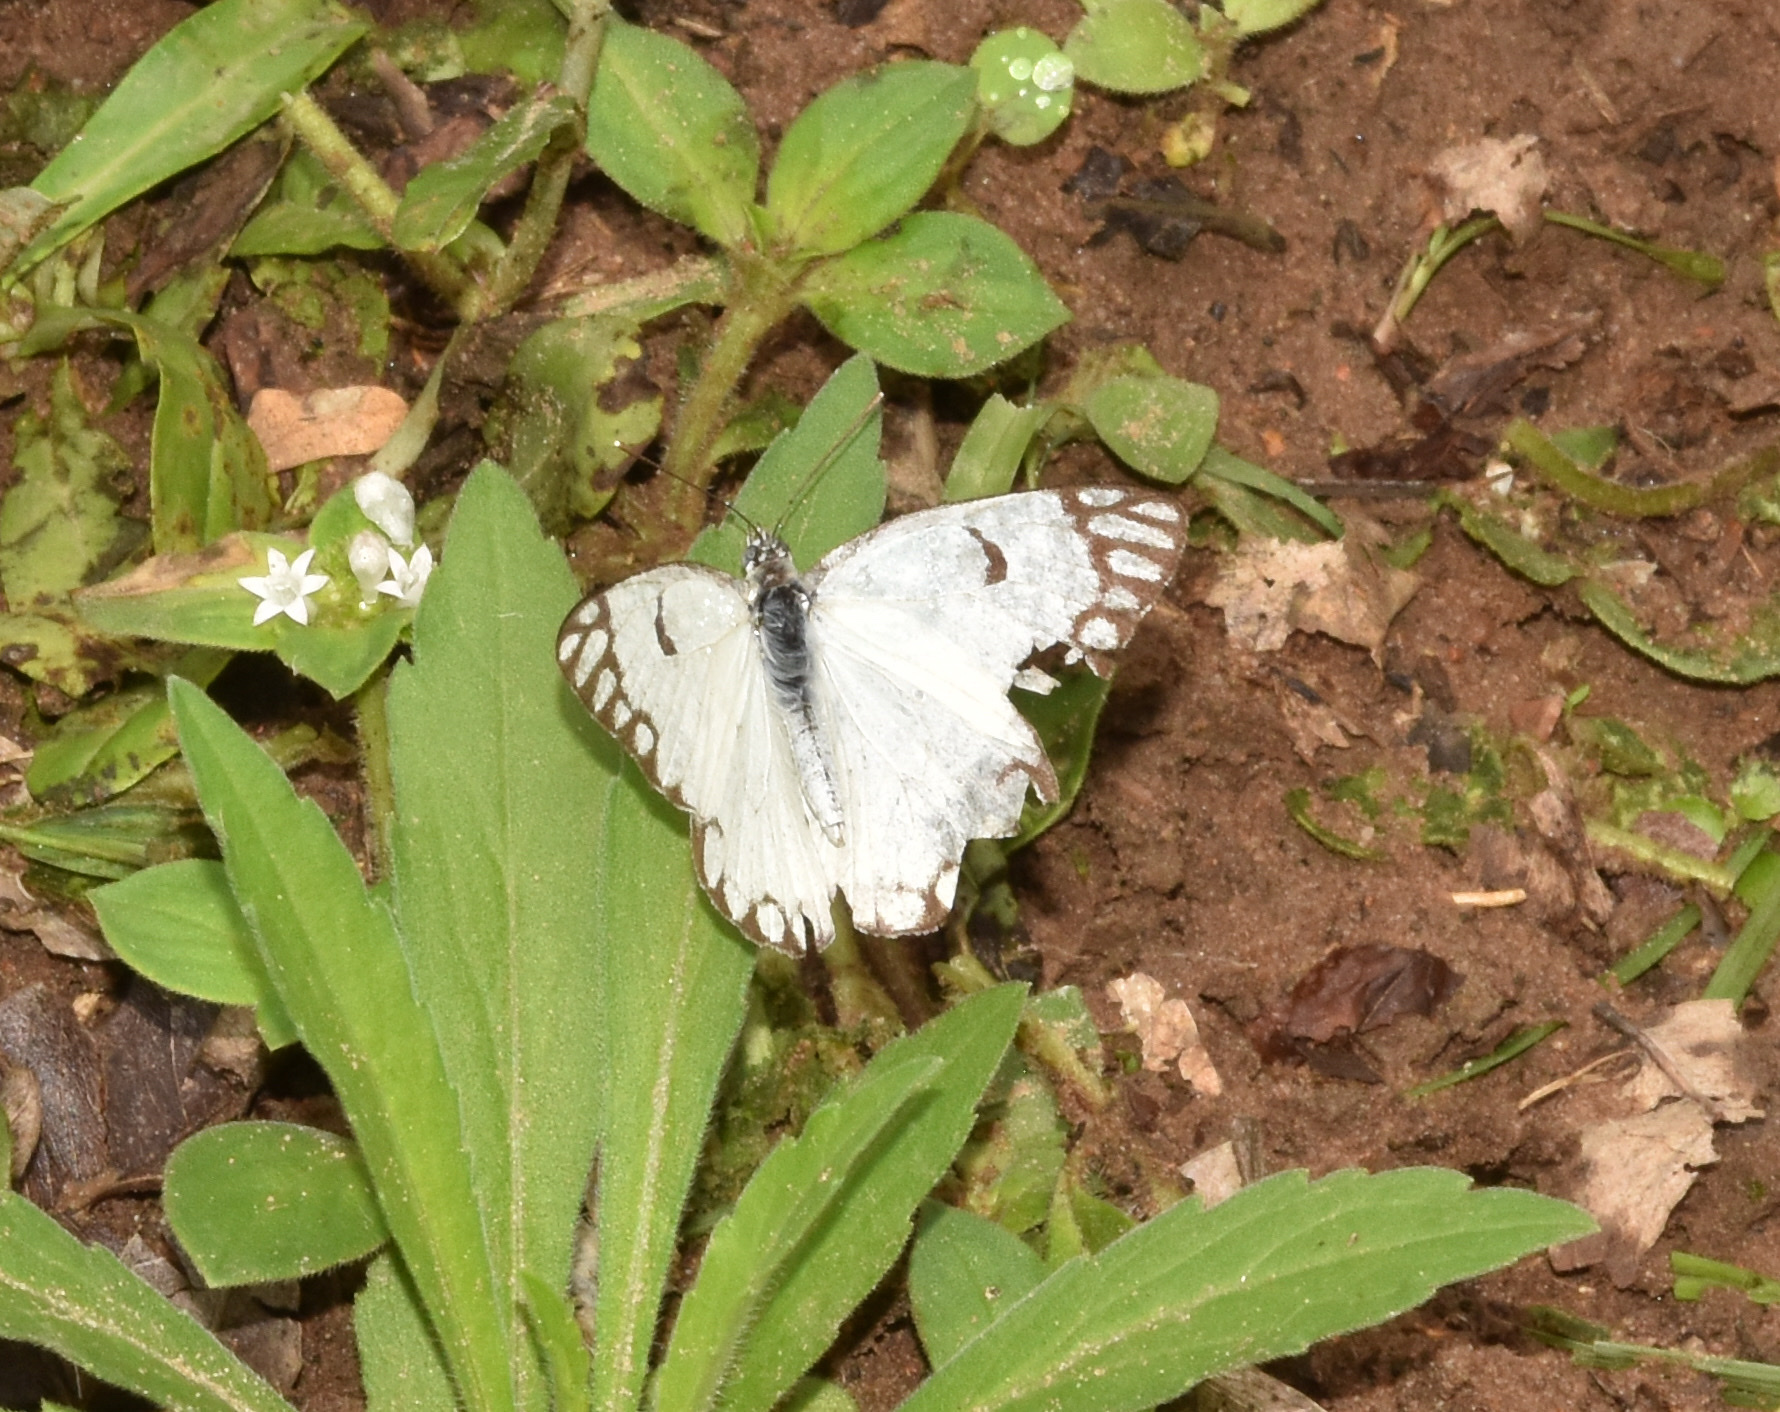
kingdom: Animalia
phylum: Arthropoda
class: Insecta
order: Lepidoptera
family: Pieridae
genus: Belenois
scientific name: Belenois aurota
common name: Brown-veined white
